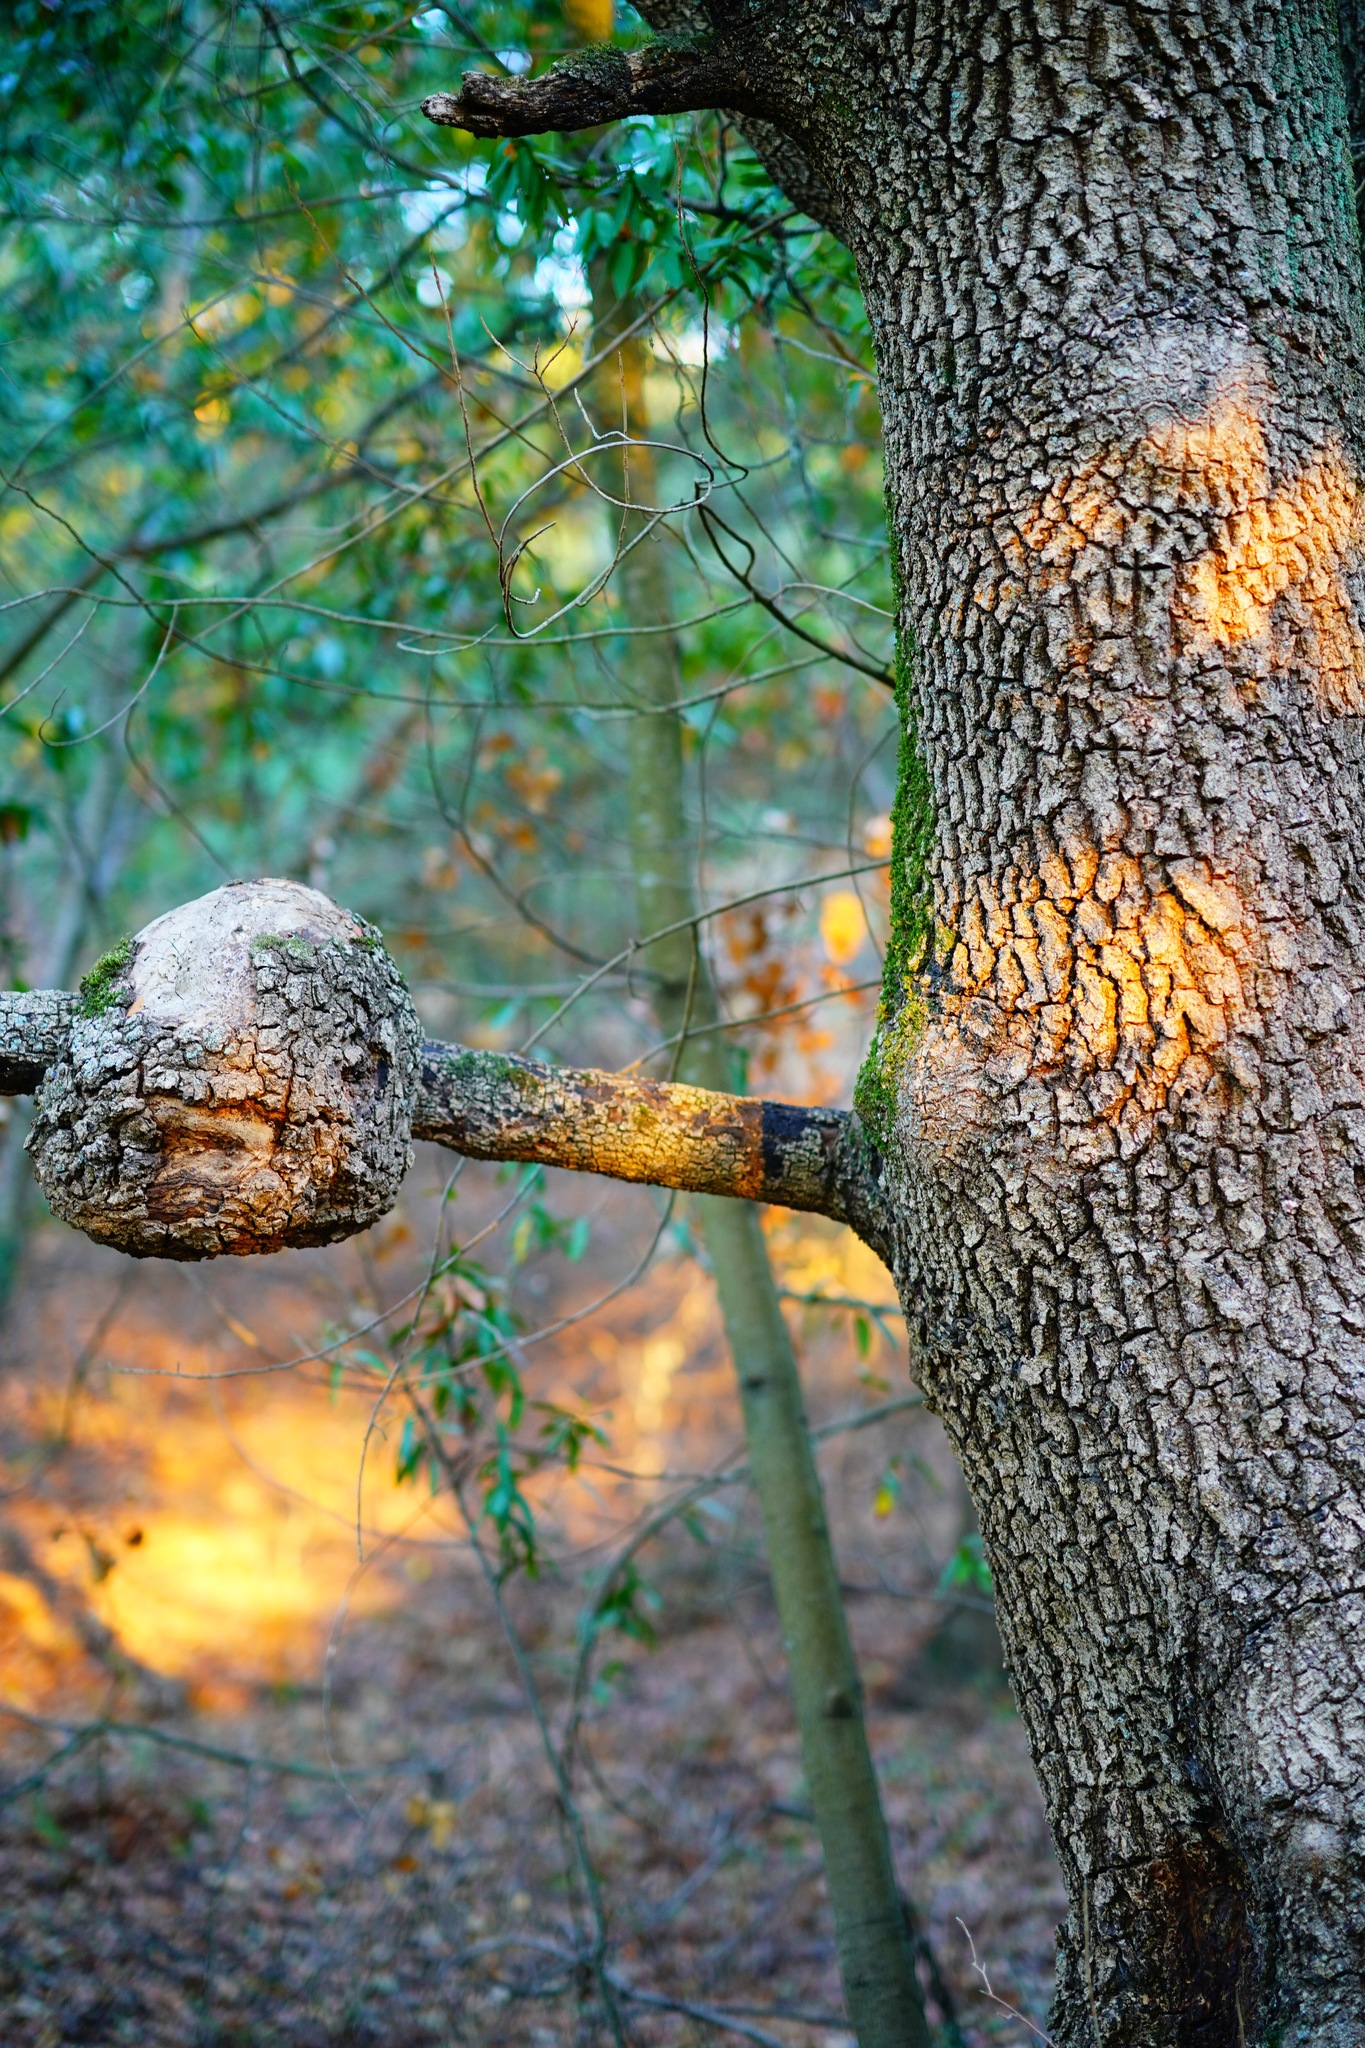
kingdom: Plantae
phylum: Tracheophyta
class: Magnoliopsida
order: Laurales
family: Lauraceae
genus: Umbellularia
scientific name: Umbellularia californica
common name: California bay
